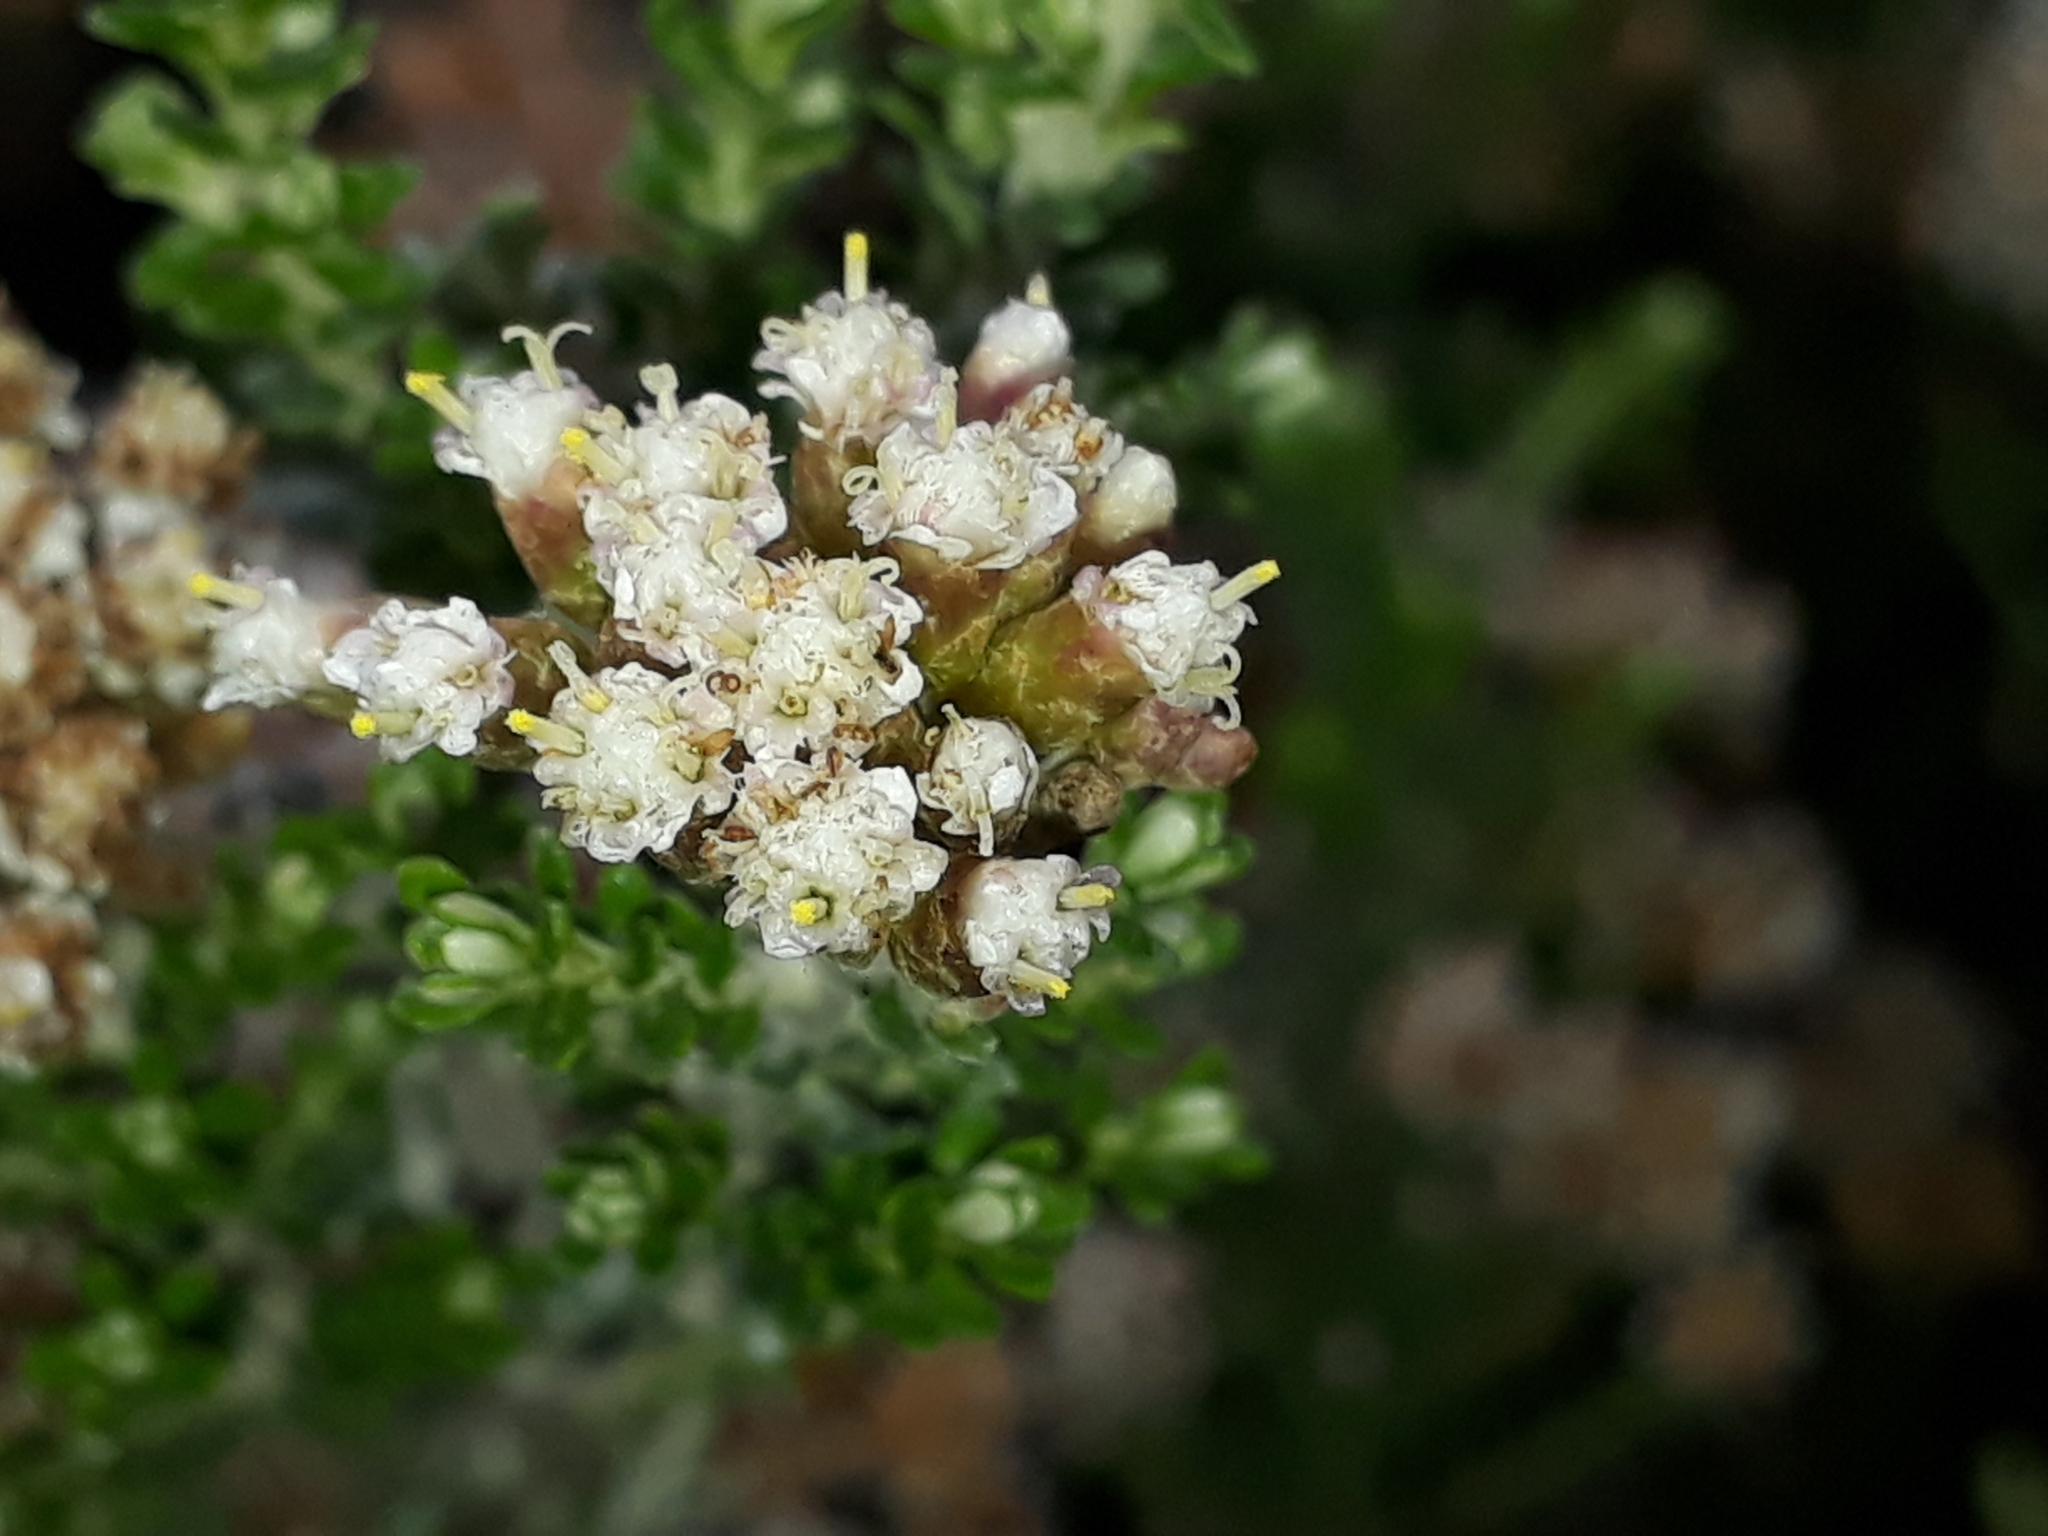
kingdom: Plantae
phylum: Tracheophyta
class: Magnoliopsida
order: Asterales
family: Asteraceae
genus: Ozothamnus
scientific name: Ozothamnus leptophyllus
